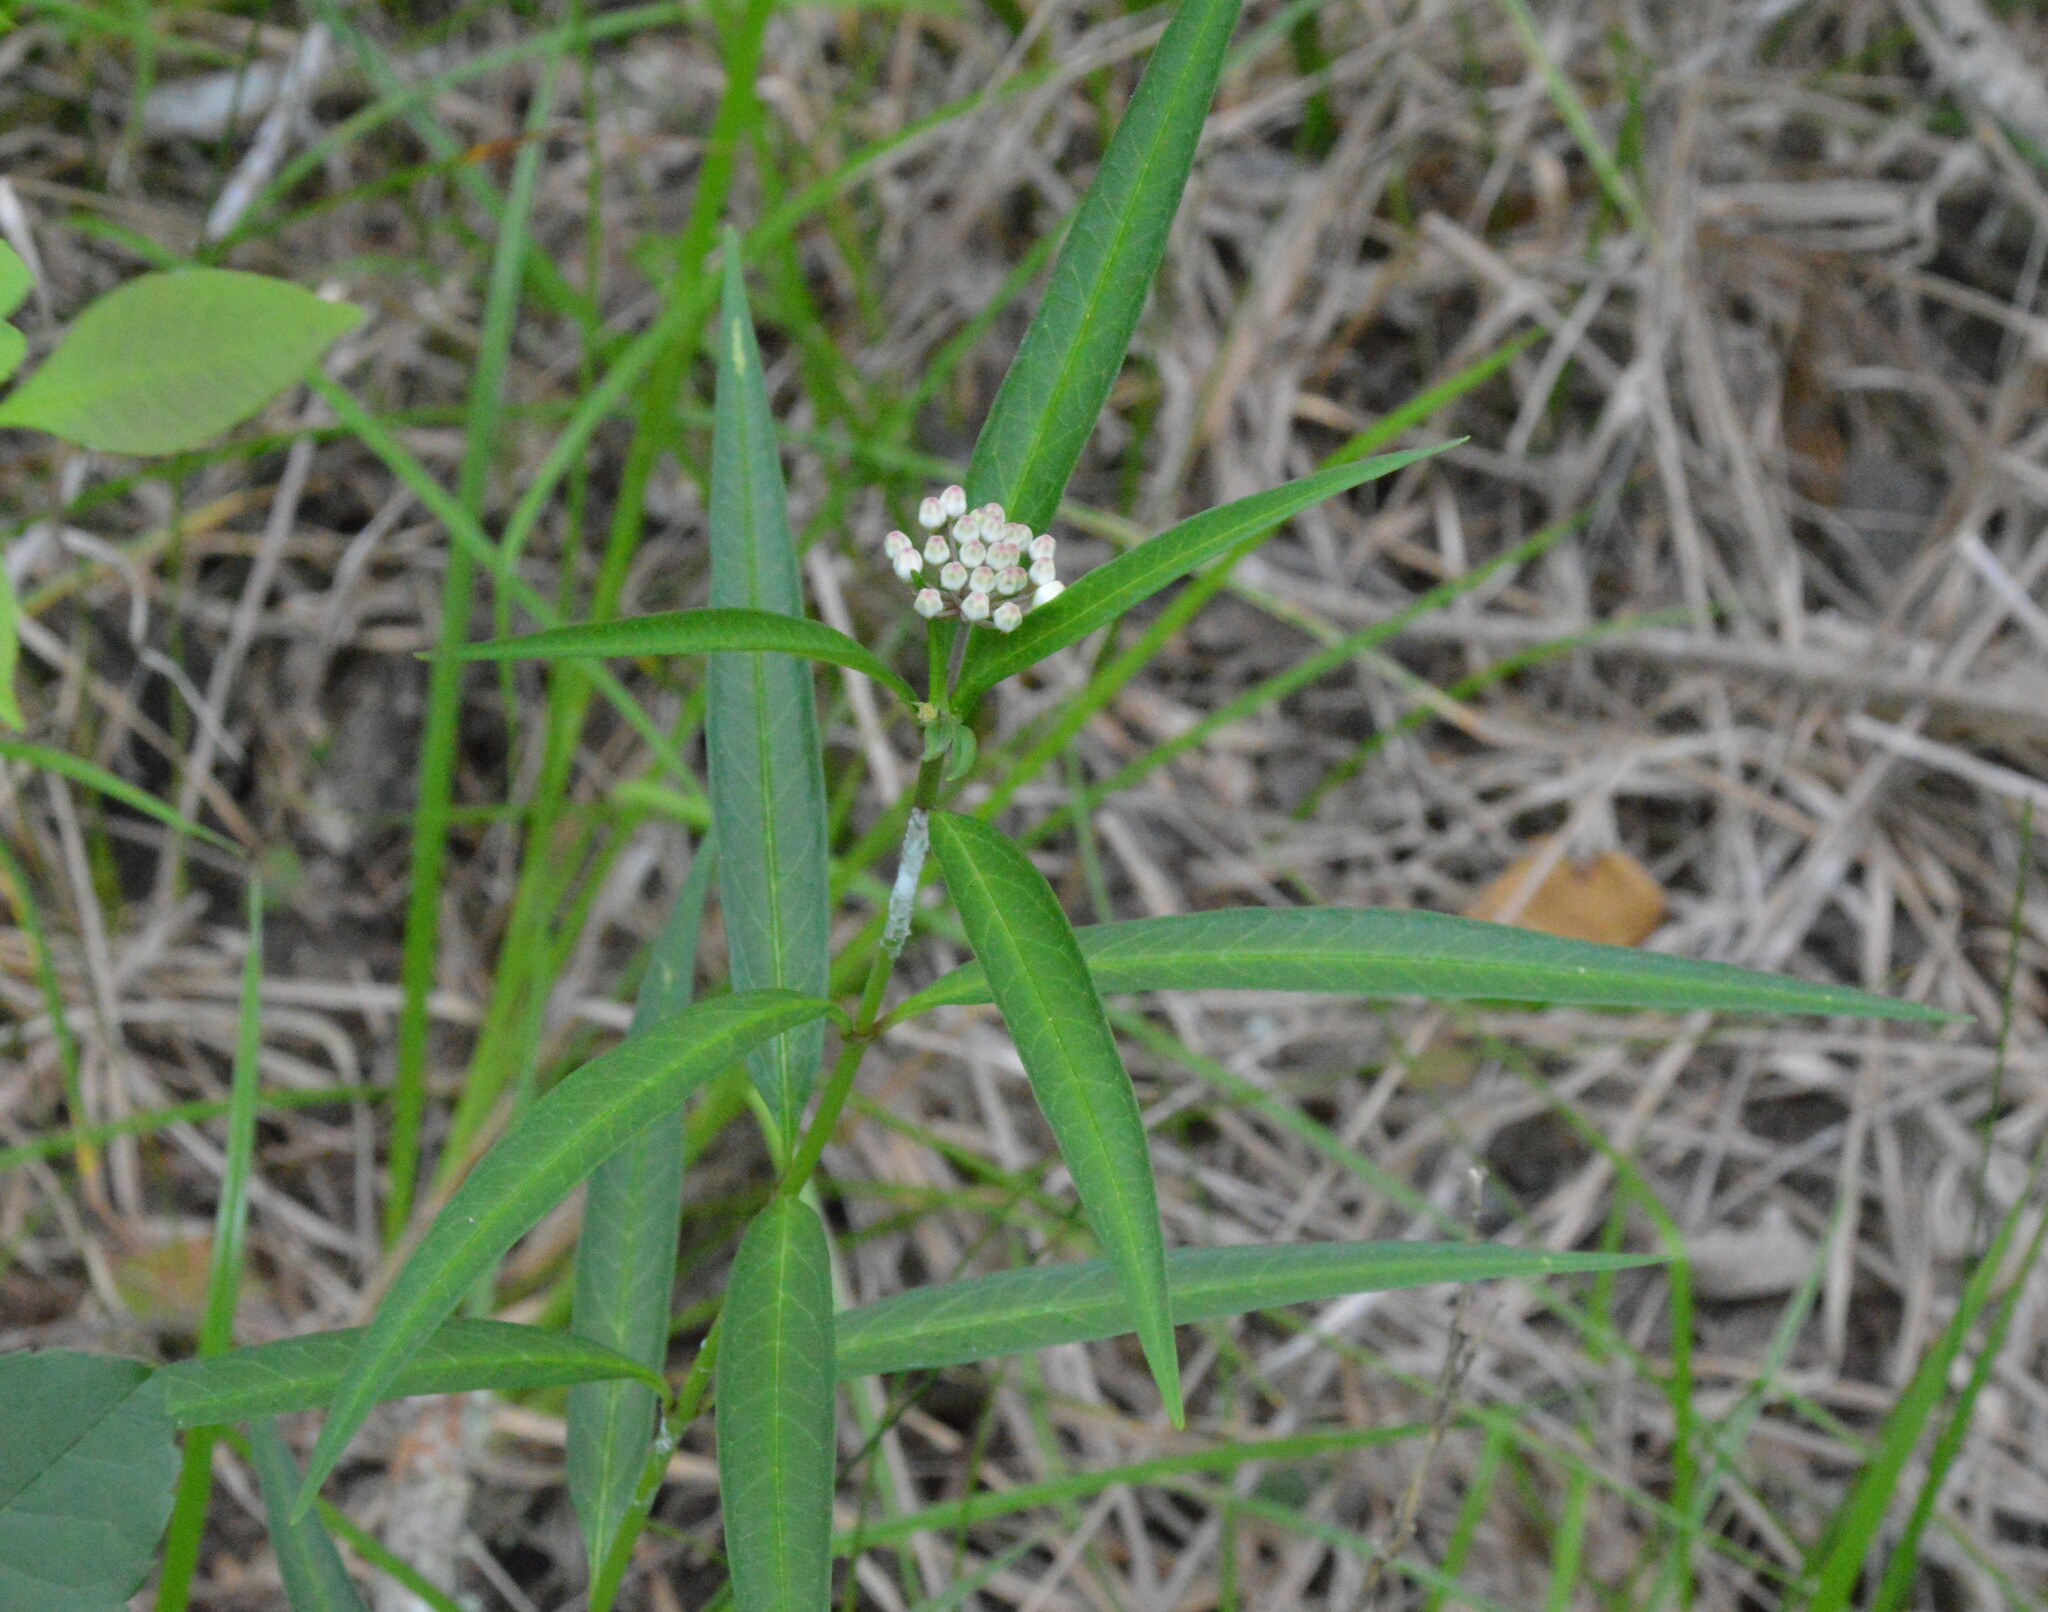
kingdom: Plantae
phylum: Tracheophyta
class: Magnoliopsida
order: Gentianales
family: Apocynaceae
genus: Asclepias
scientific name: Asclepias perennis
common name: Smooth-seed milkweed
